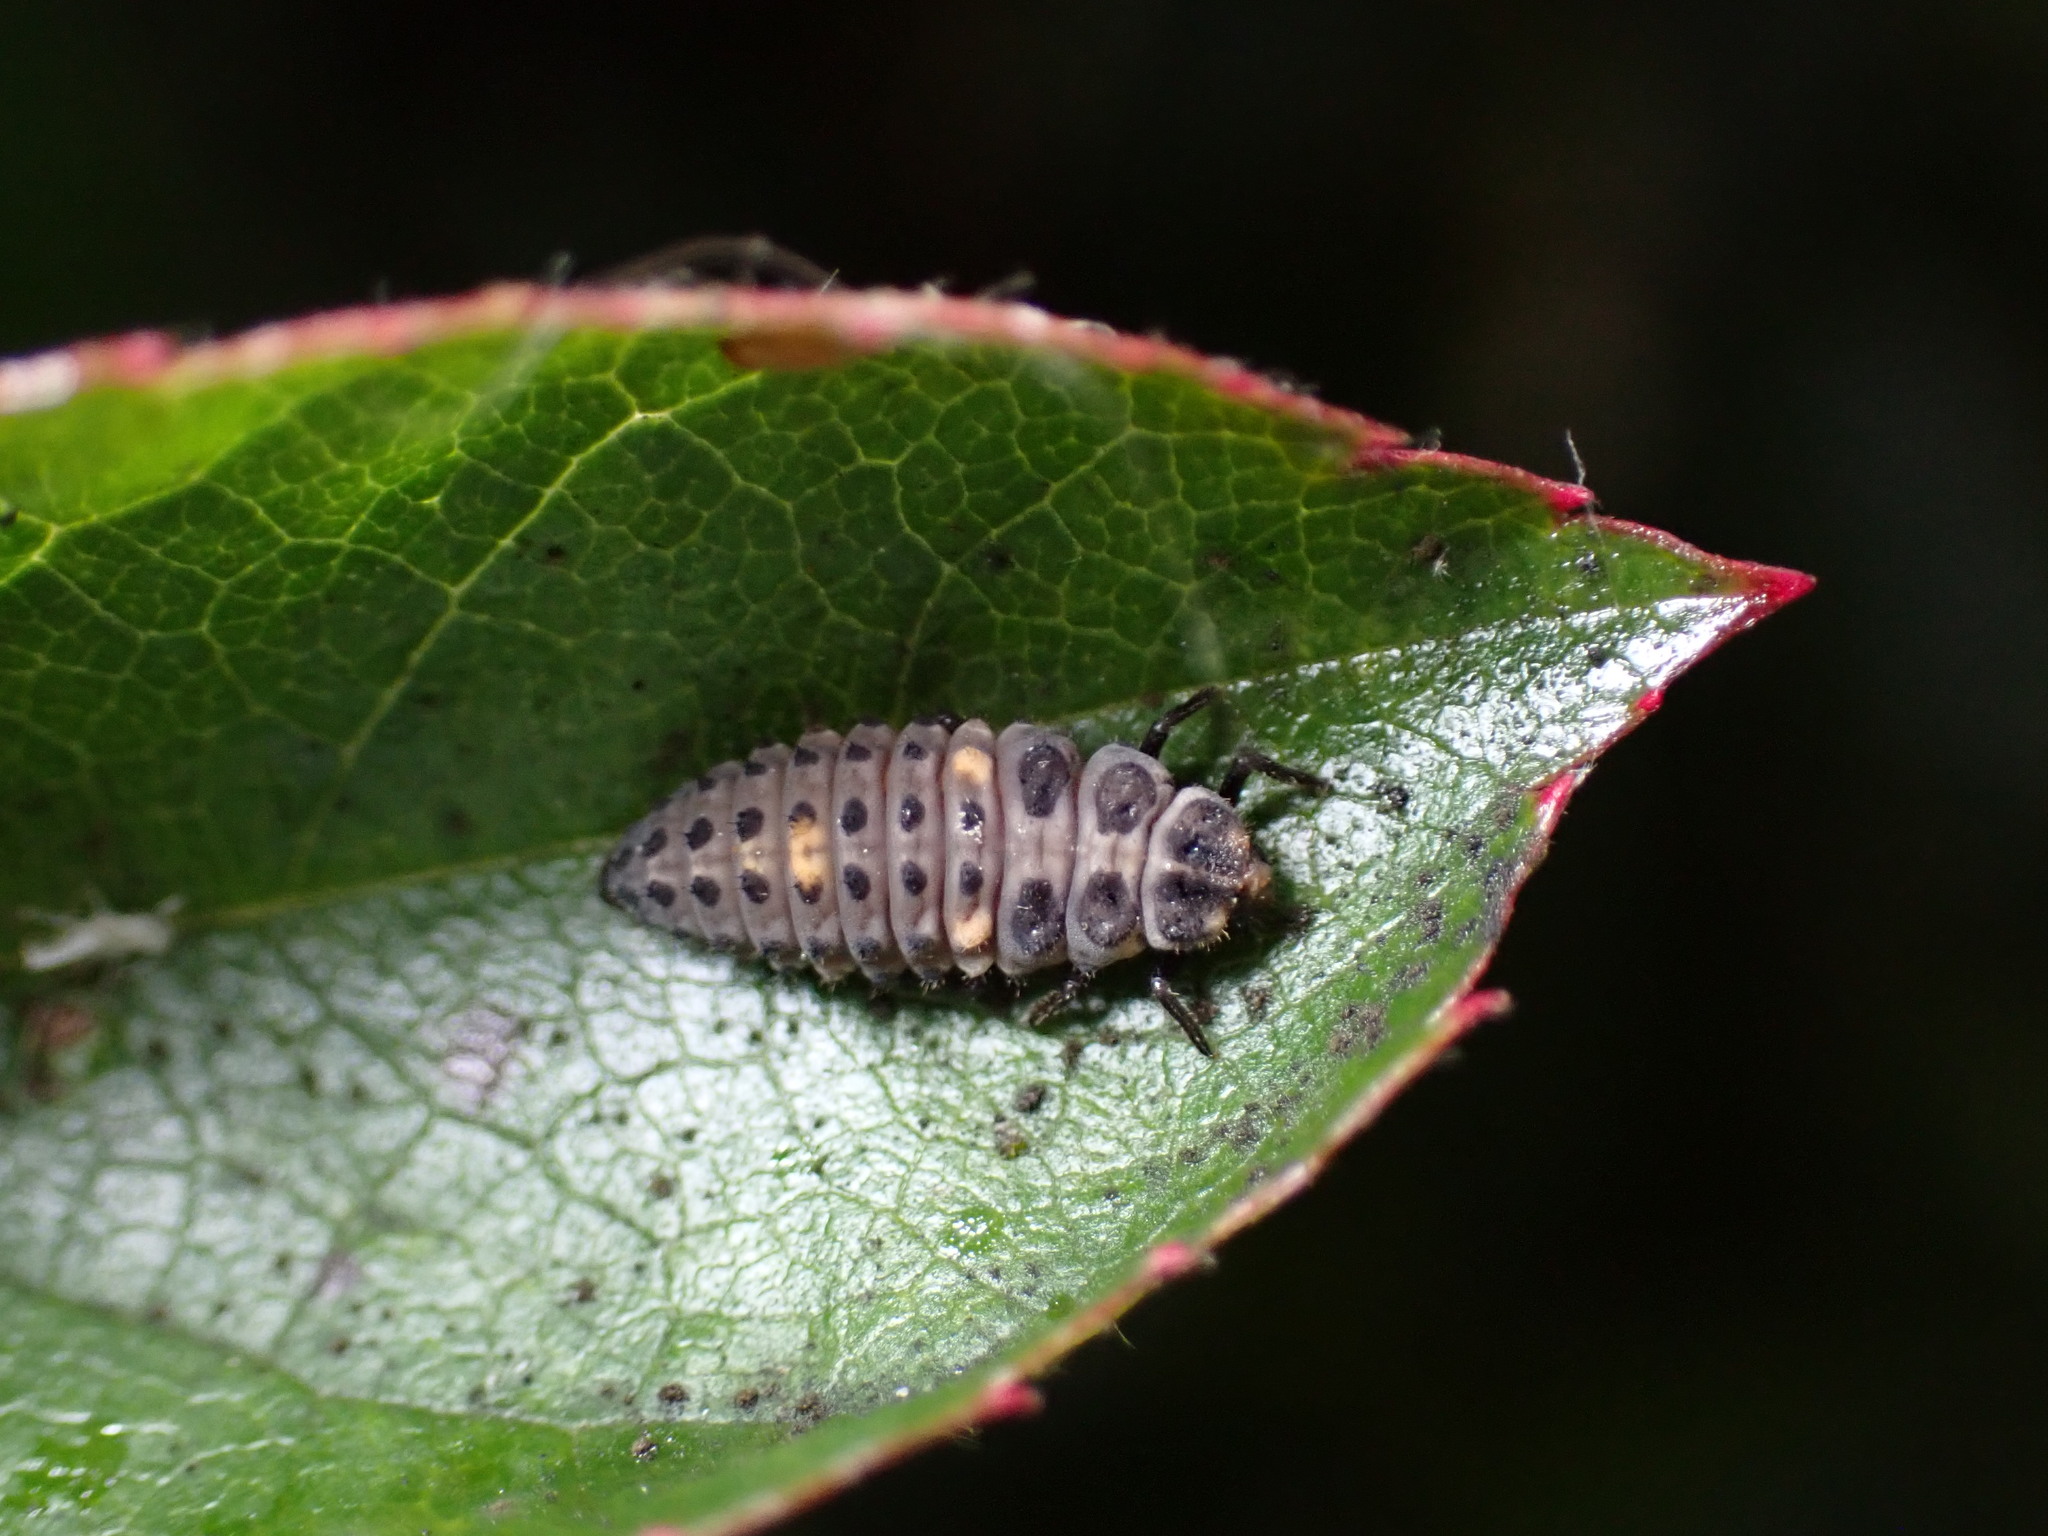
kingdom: Animalia
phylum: Arthropoda
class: Insecta
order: Coleoptera
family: Coccinellidae
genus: Adalia
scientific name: Adalia bipunctata
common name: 2-spot ladybird
